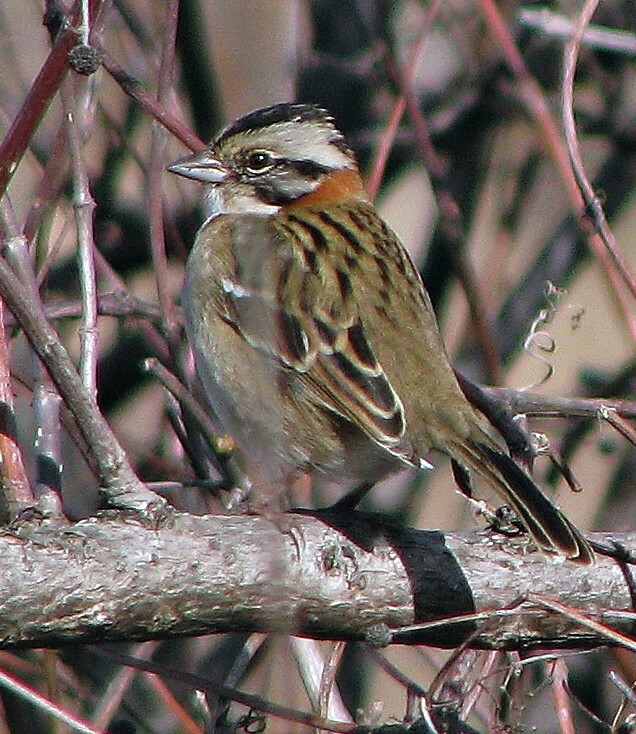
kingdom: Animalia
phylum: Chordata
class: Aves
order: Passeriformes
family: Passerellidae
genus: Zonotrichia
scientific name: Zonotrichia capensis
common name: Rufous-collared sparrow
